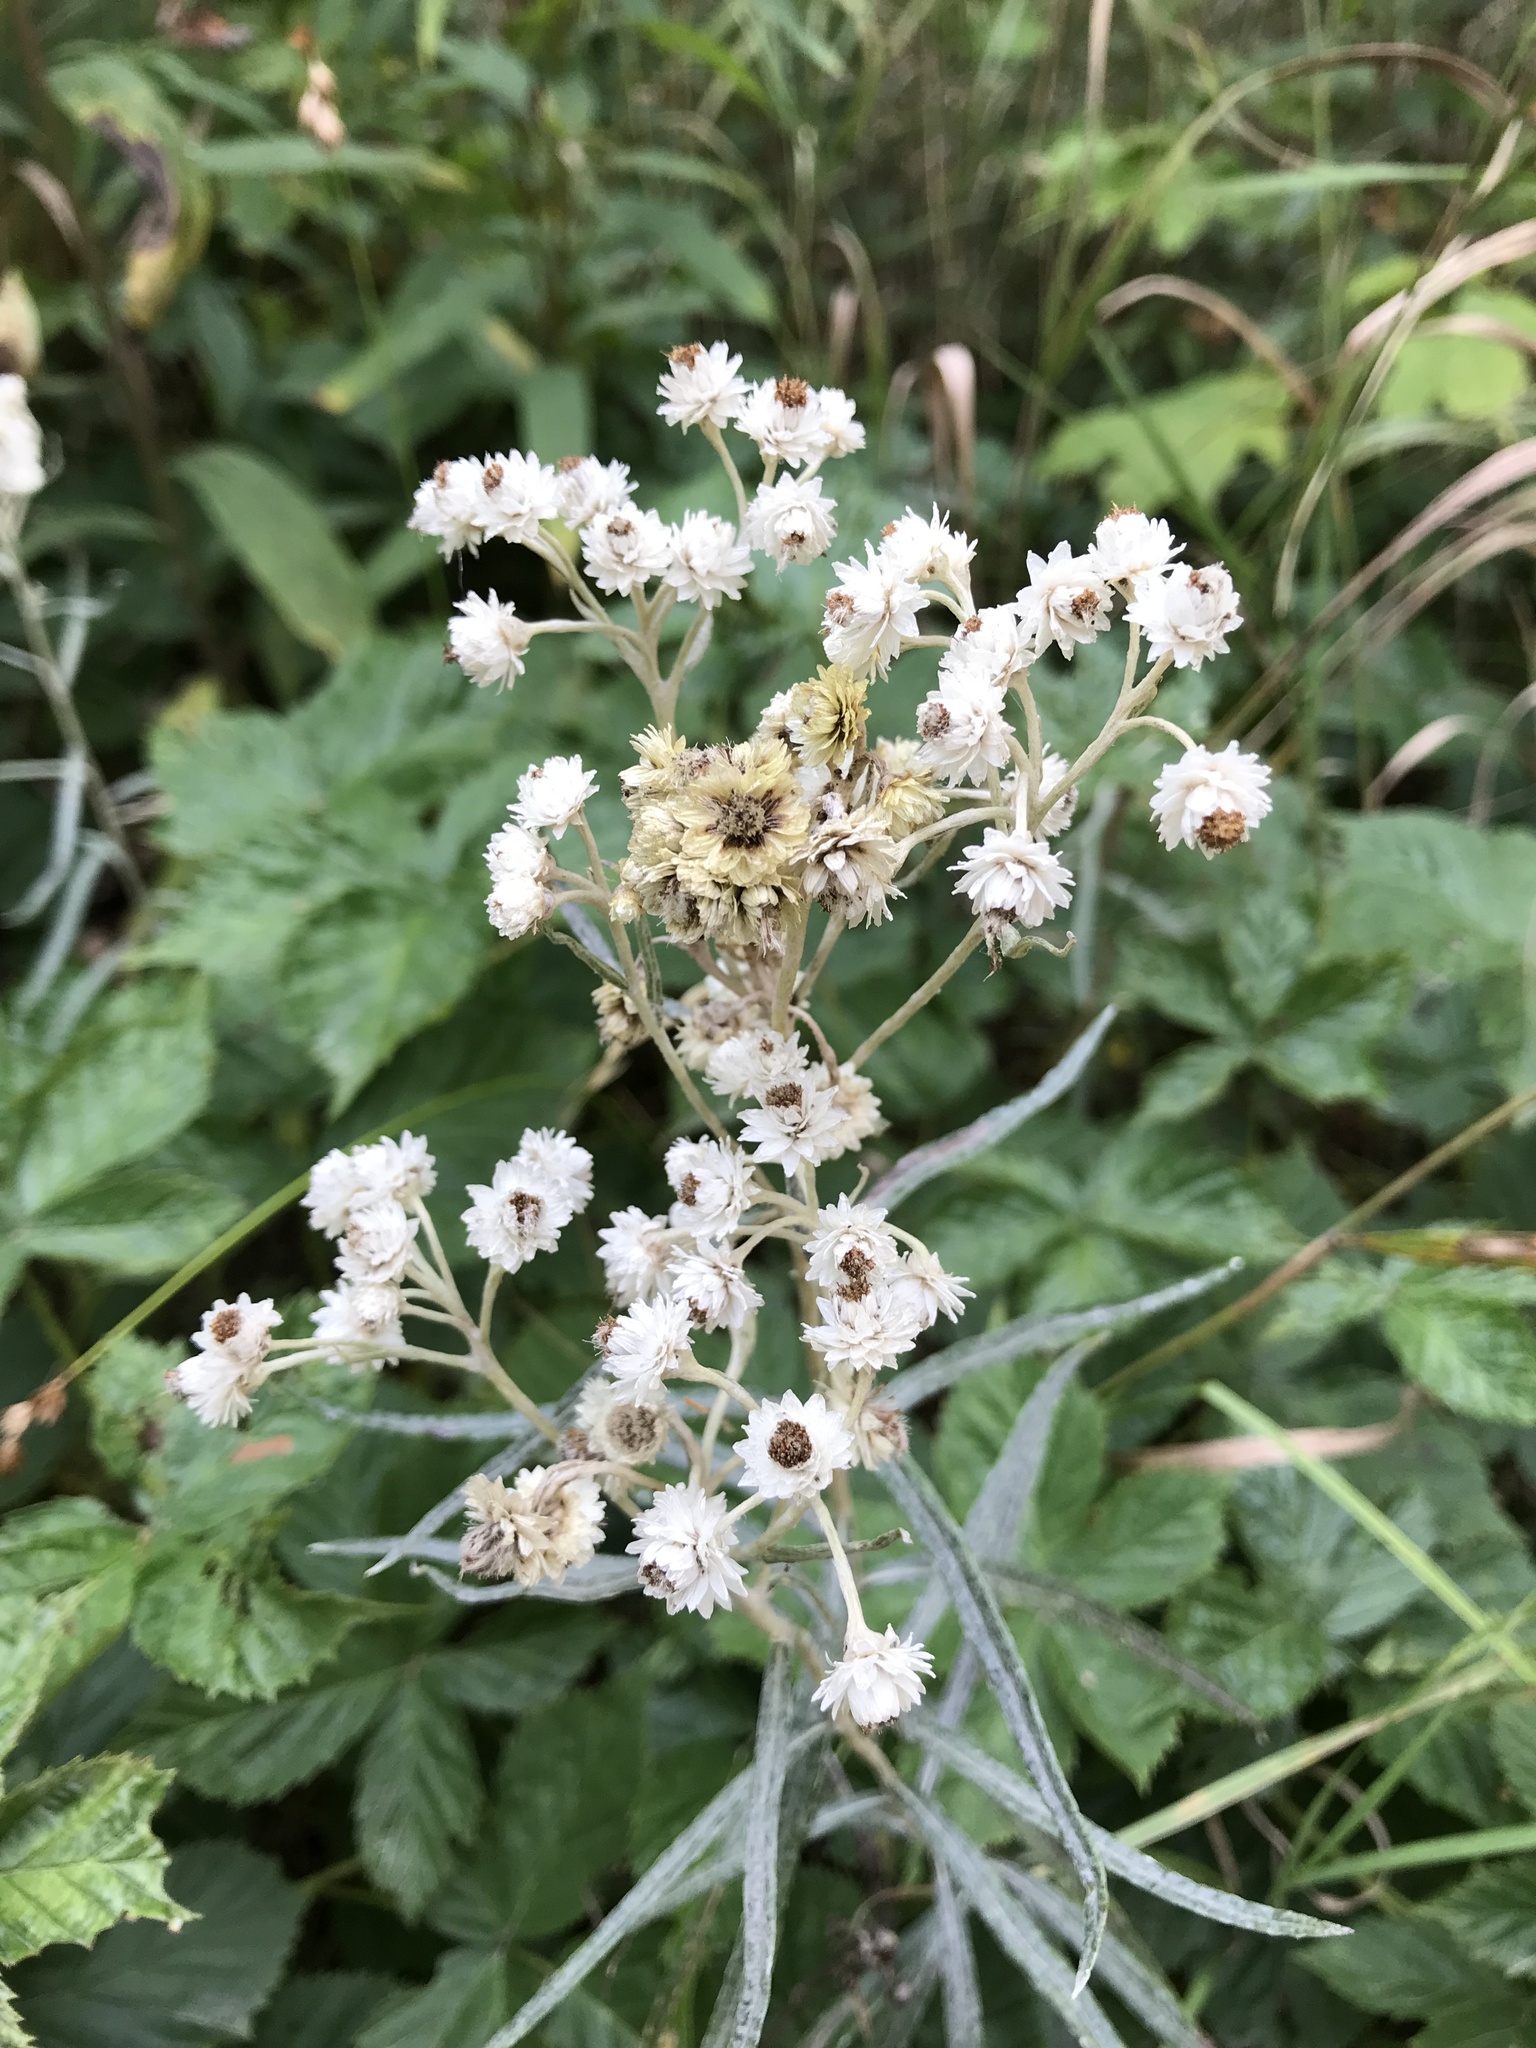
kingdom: Plantae
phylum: Tracheophyta
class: Magnoliopsida
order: Asterales
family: Asteraceae
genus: Anaphalis
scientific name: Anaphalis margaritacea
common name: Pearly everlasting
